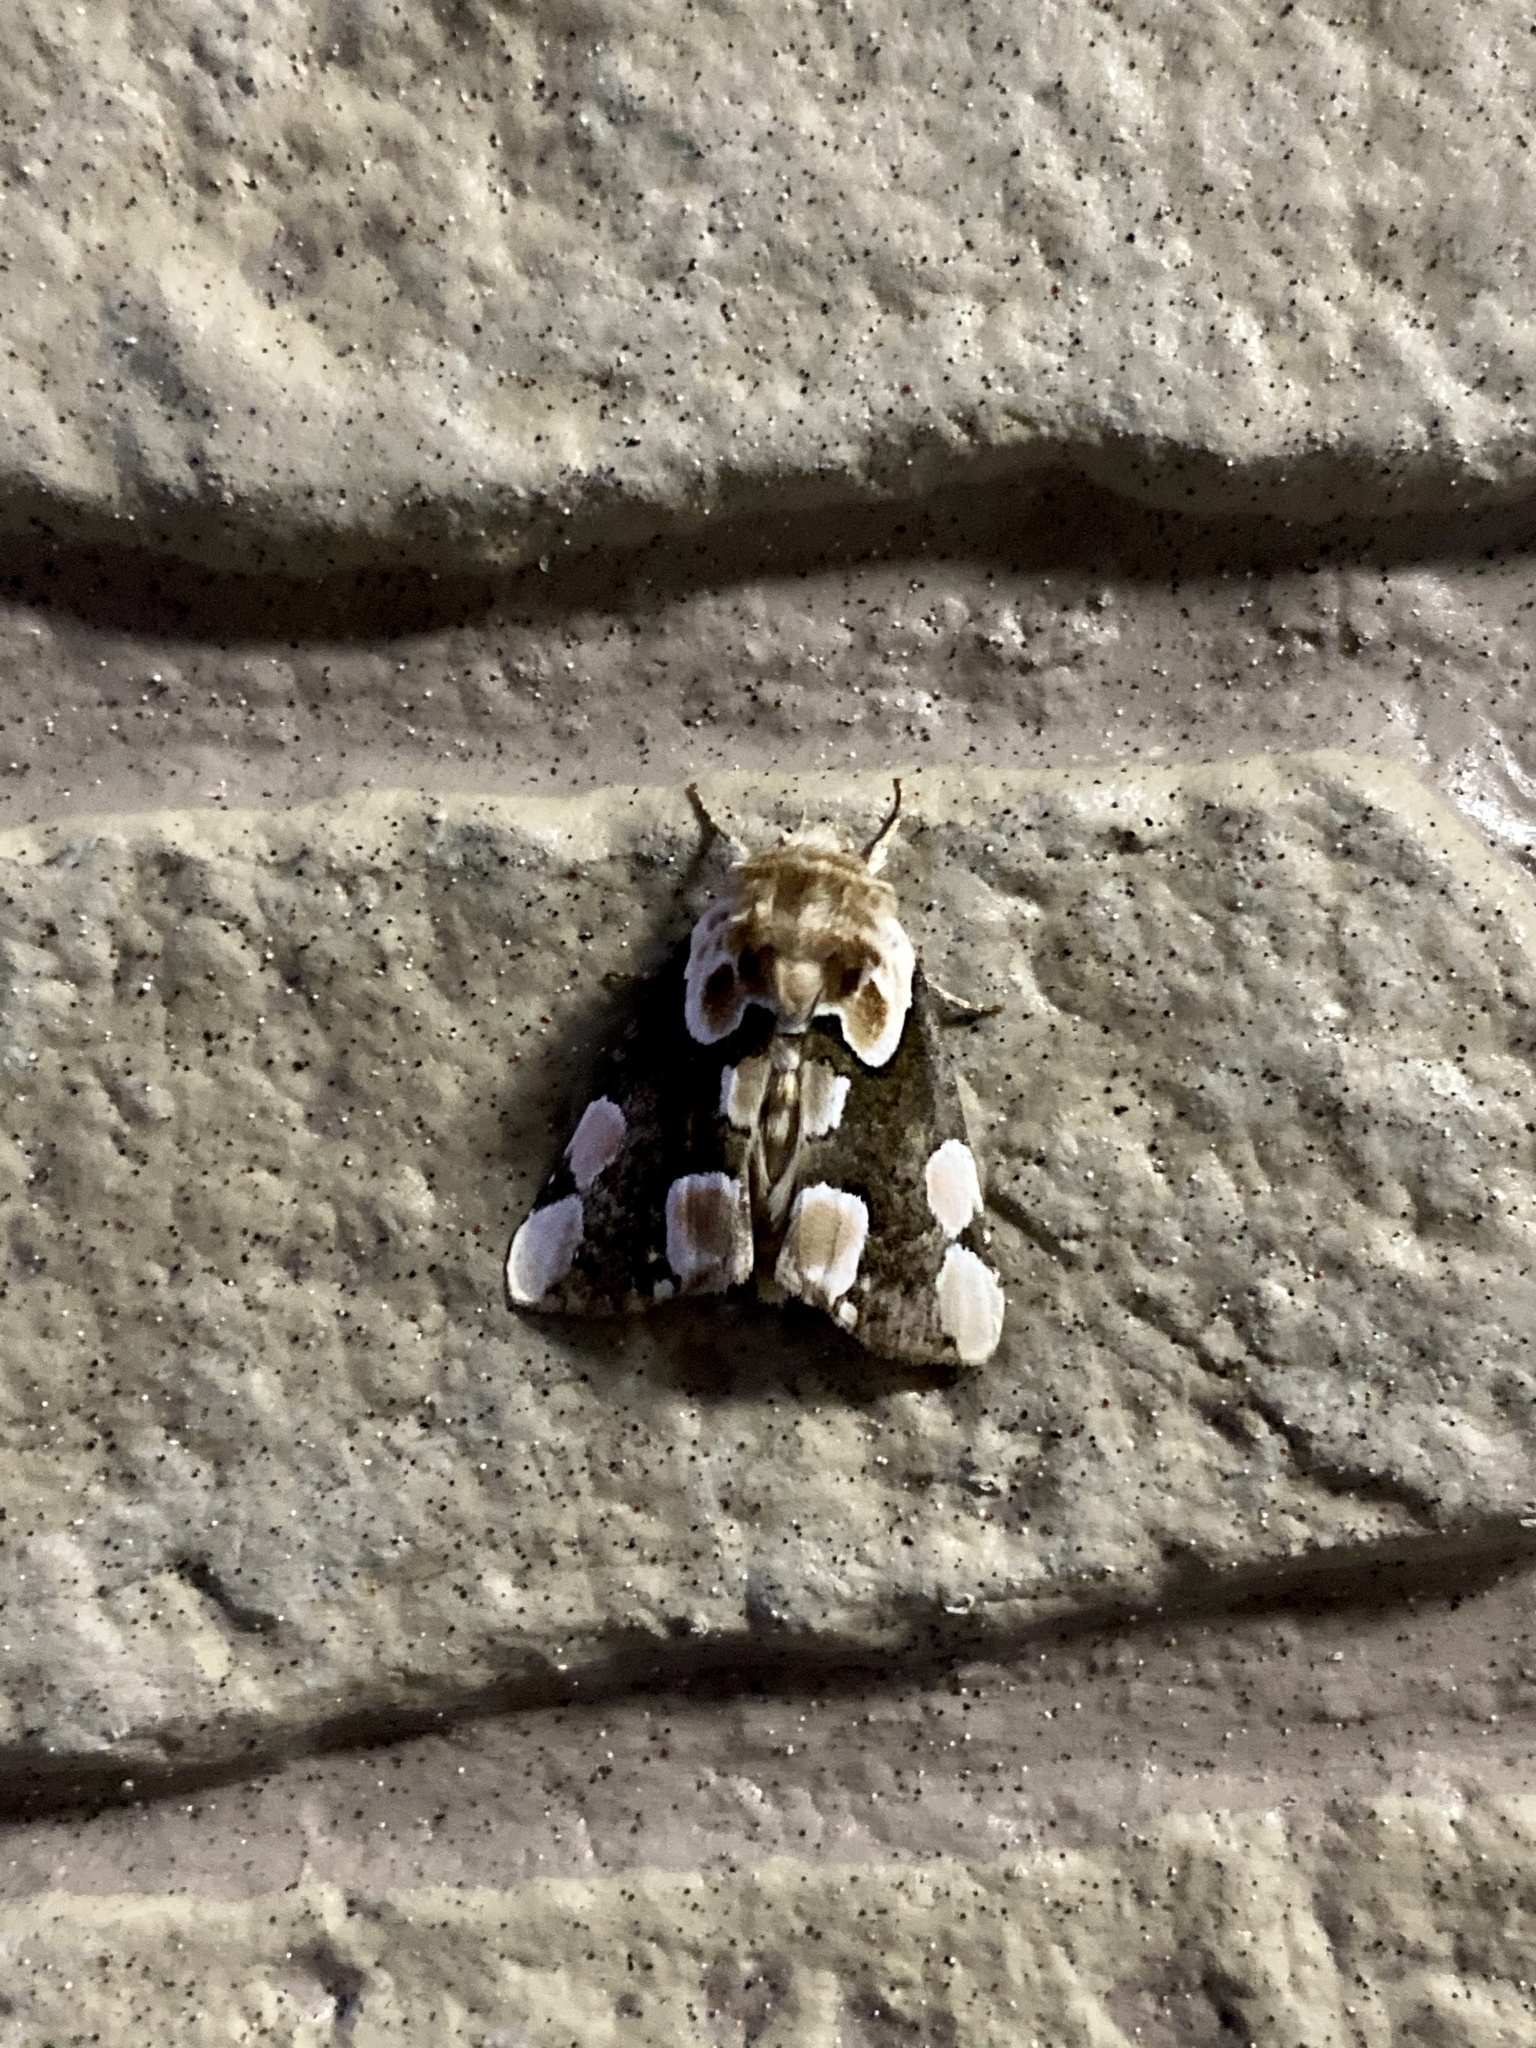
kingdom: Animalia
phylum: Arthropoda
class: Insecta
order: Lepidoptera
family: Drepanidae
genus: Thyatira
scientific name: Thyatira batis
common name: Peach blossom
